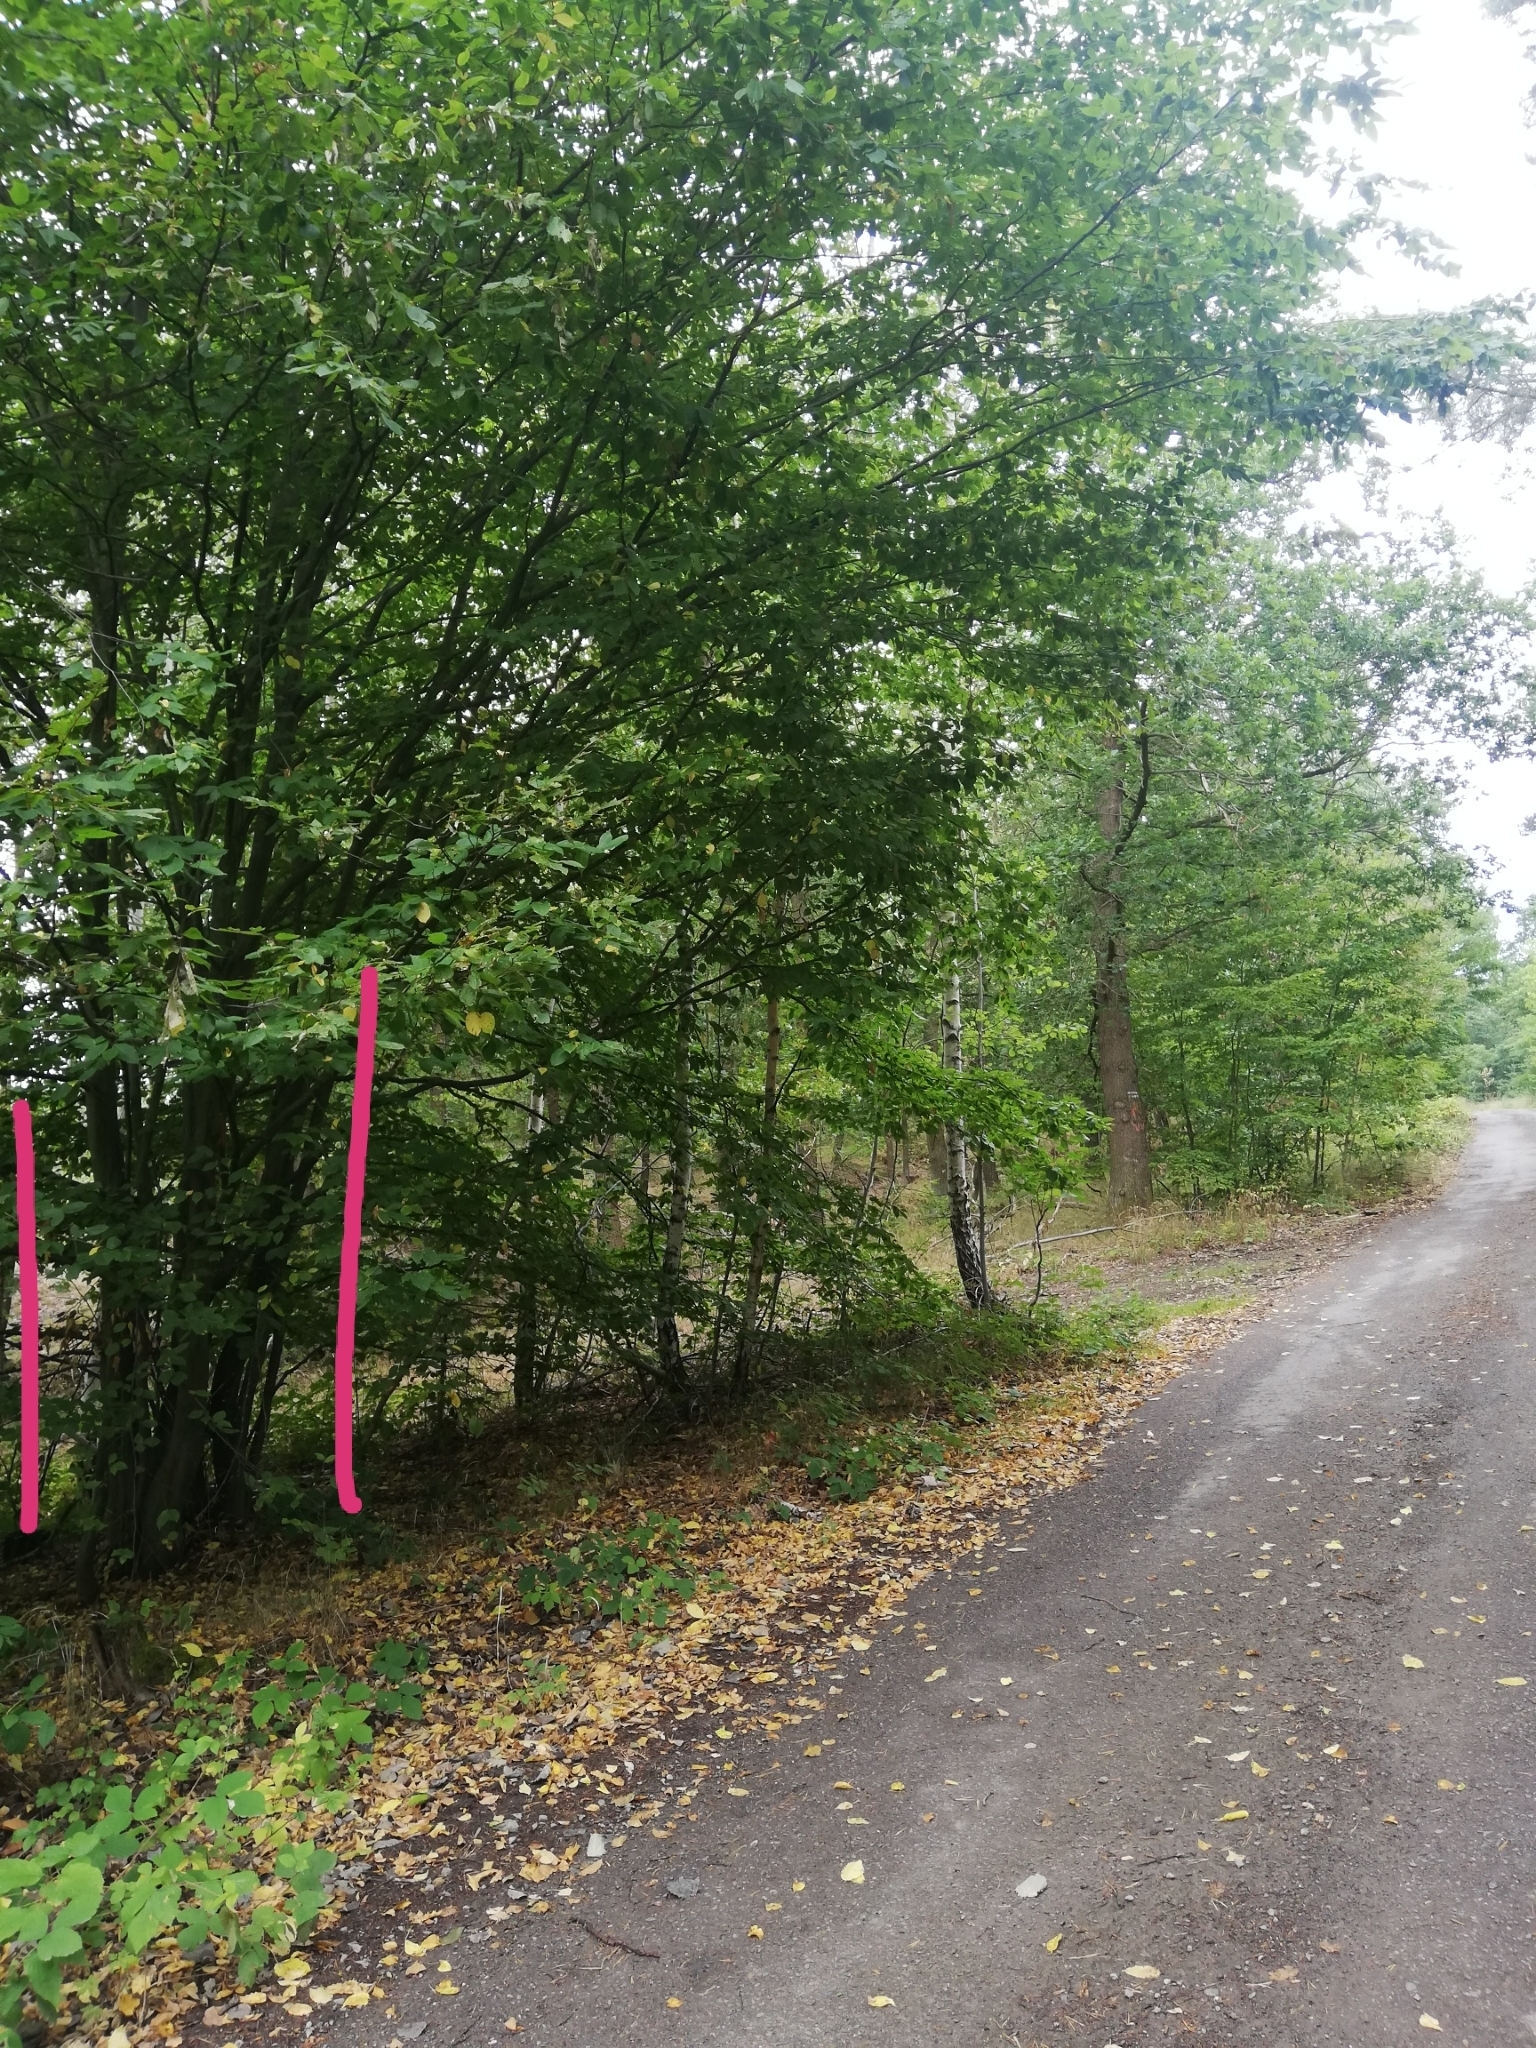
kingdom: Plantae
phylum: Tracheophyta
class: Magnoliopsida
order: Fagales
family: Betulaceae
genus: Carpinus
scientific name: Carpinus betulus
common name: Hornbeam
